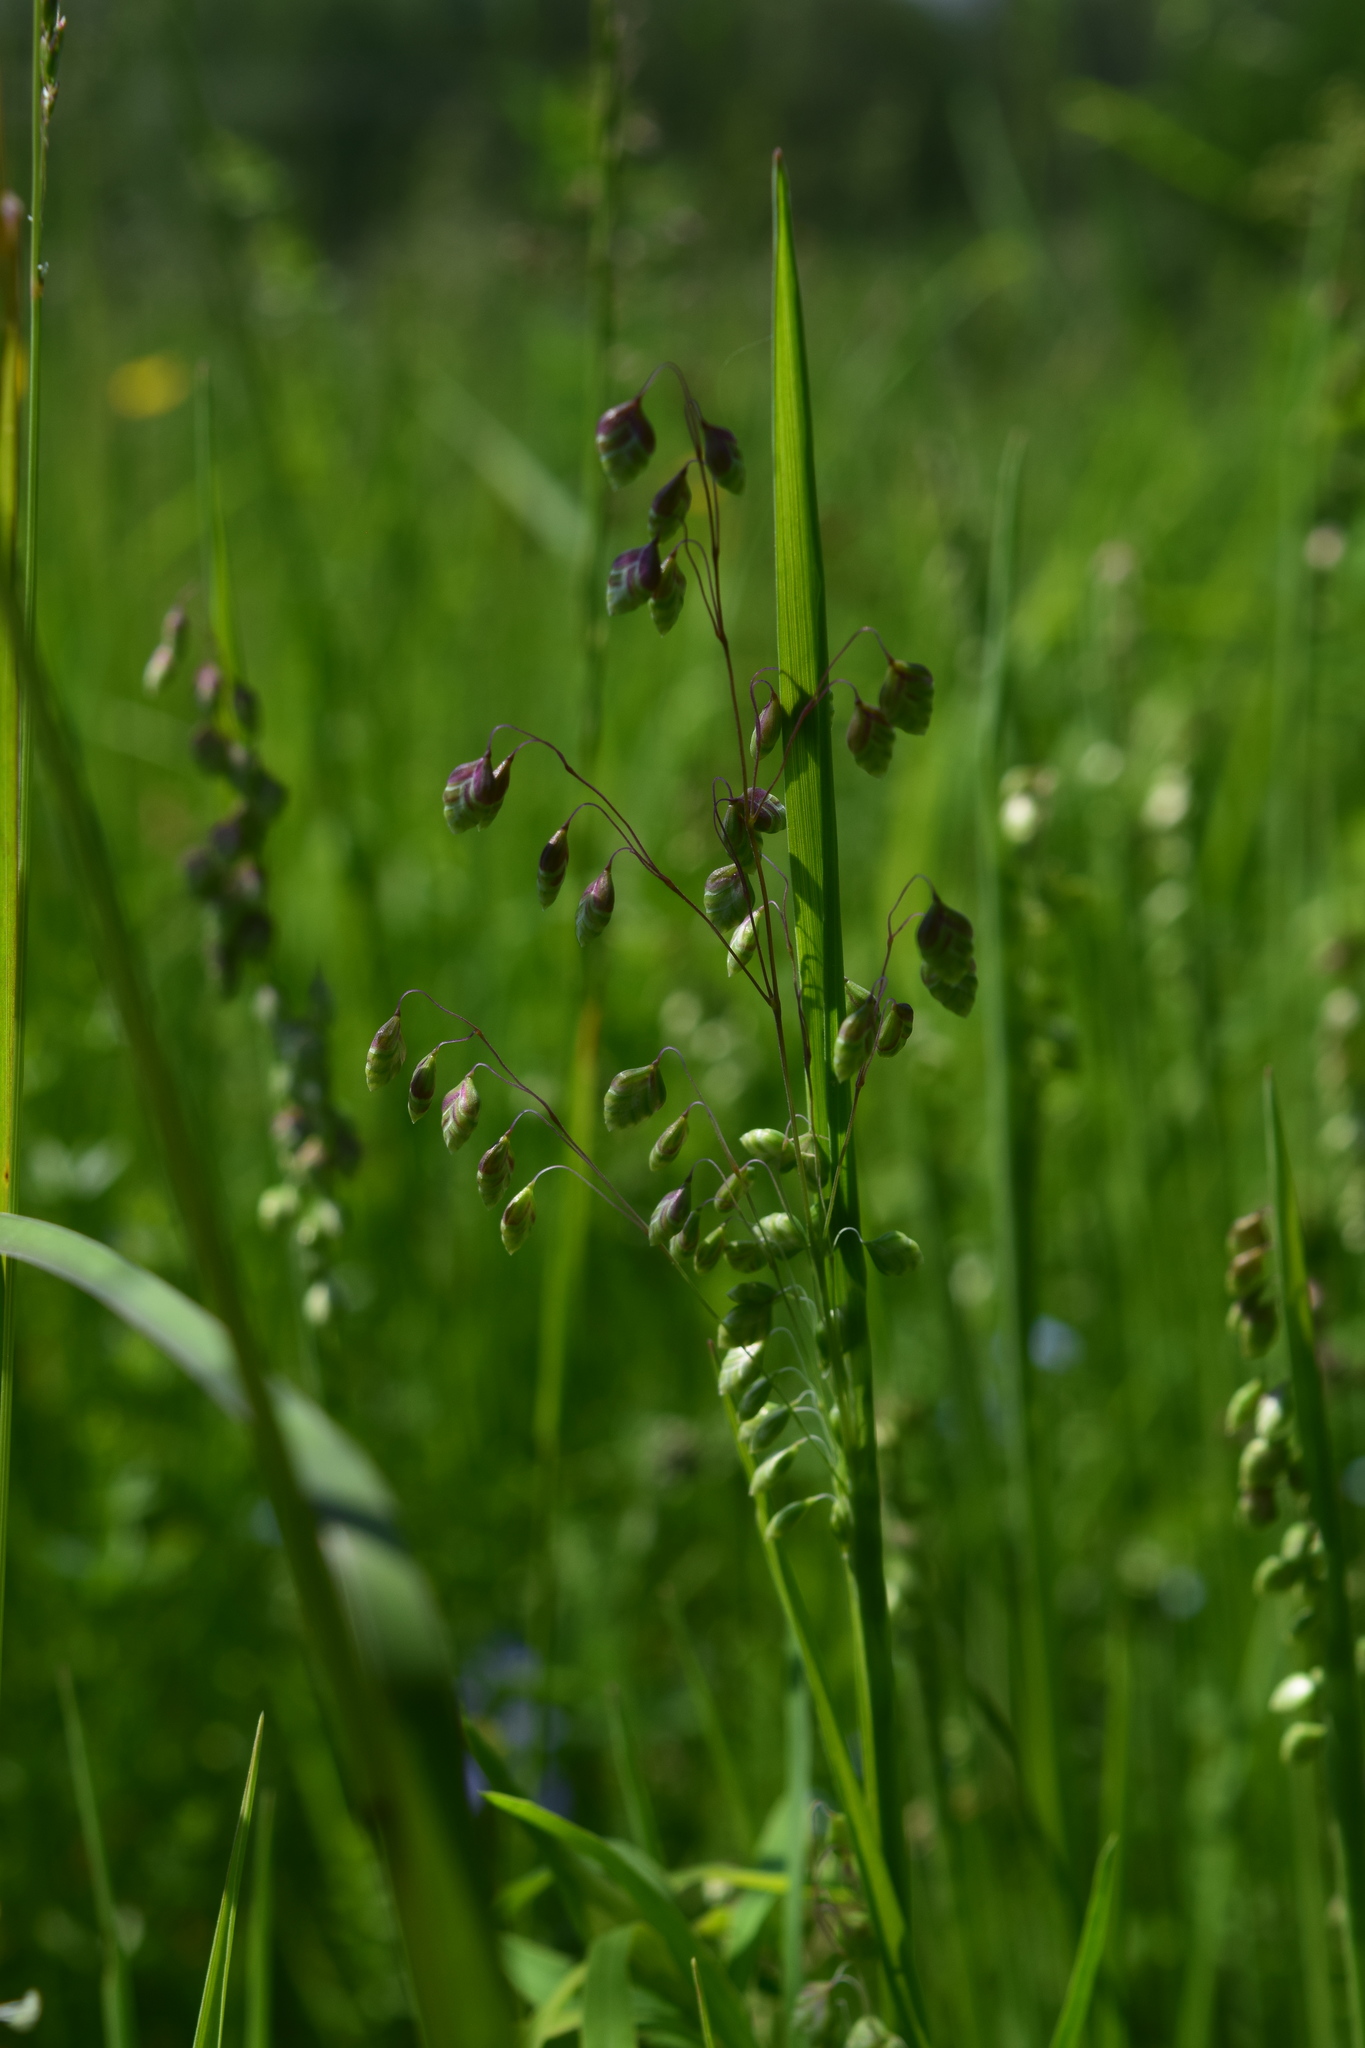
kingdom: Plantae
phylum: Tracheophyta
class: Liliopsida
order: Poales
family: Poaceae
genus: Briza
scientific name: Briza media
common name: Quaking grass
